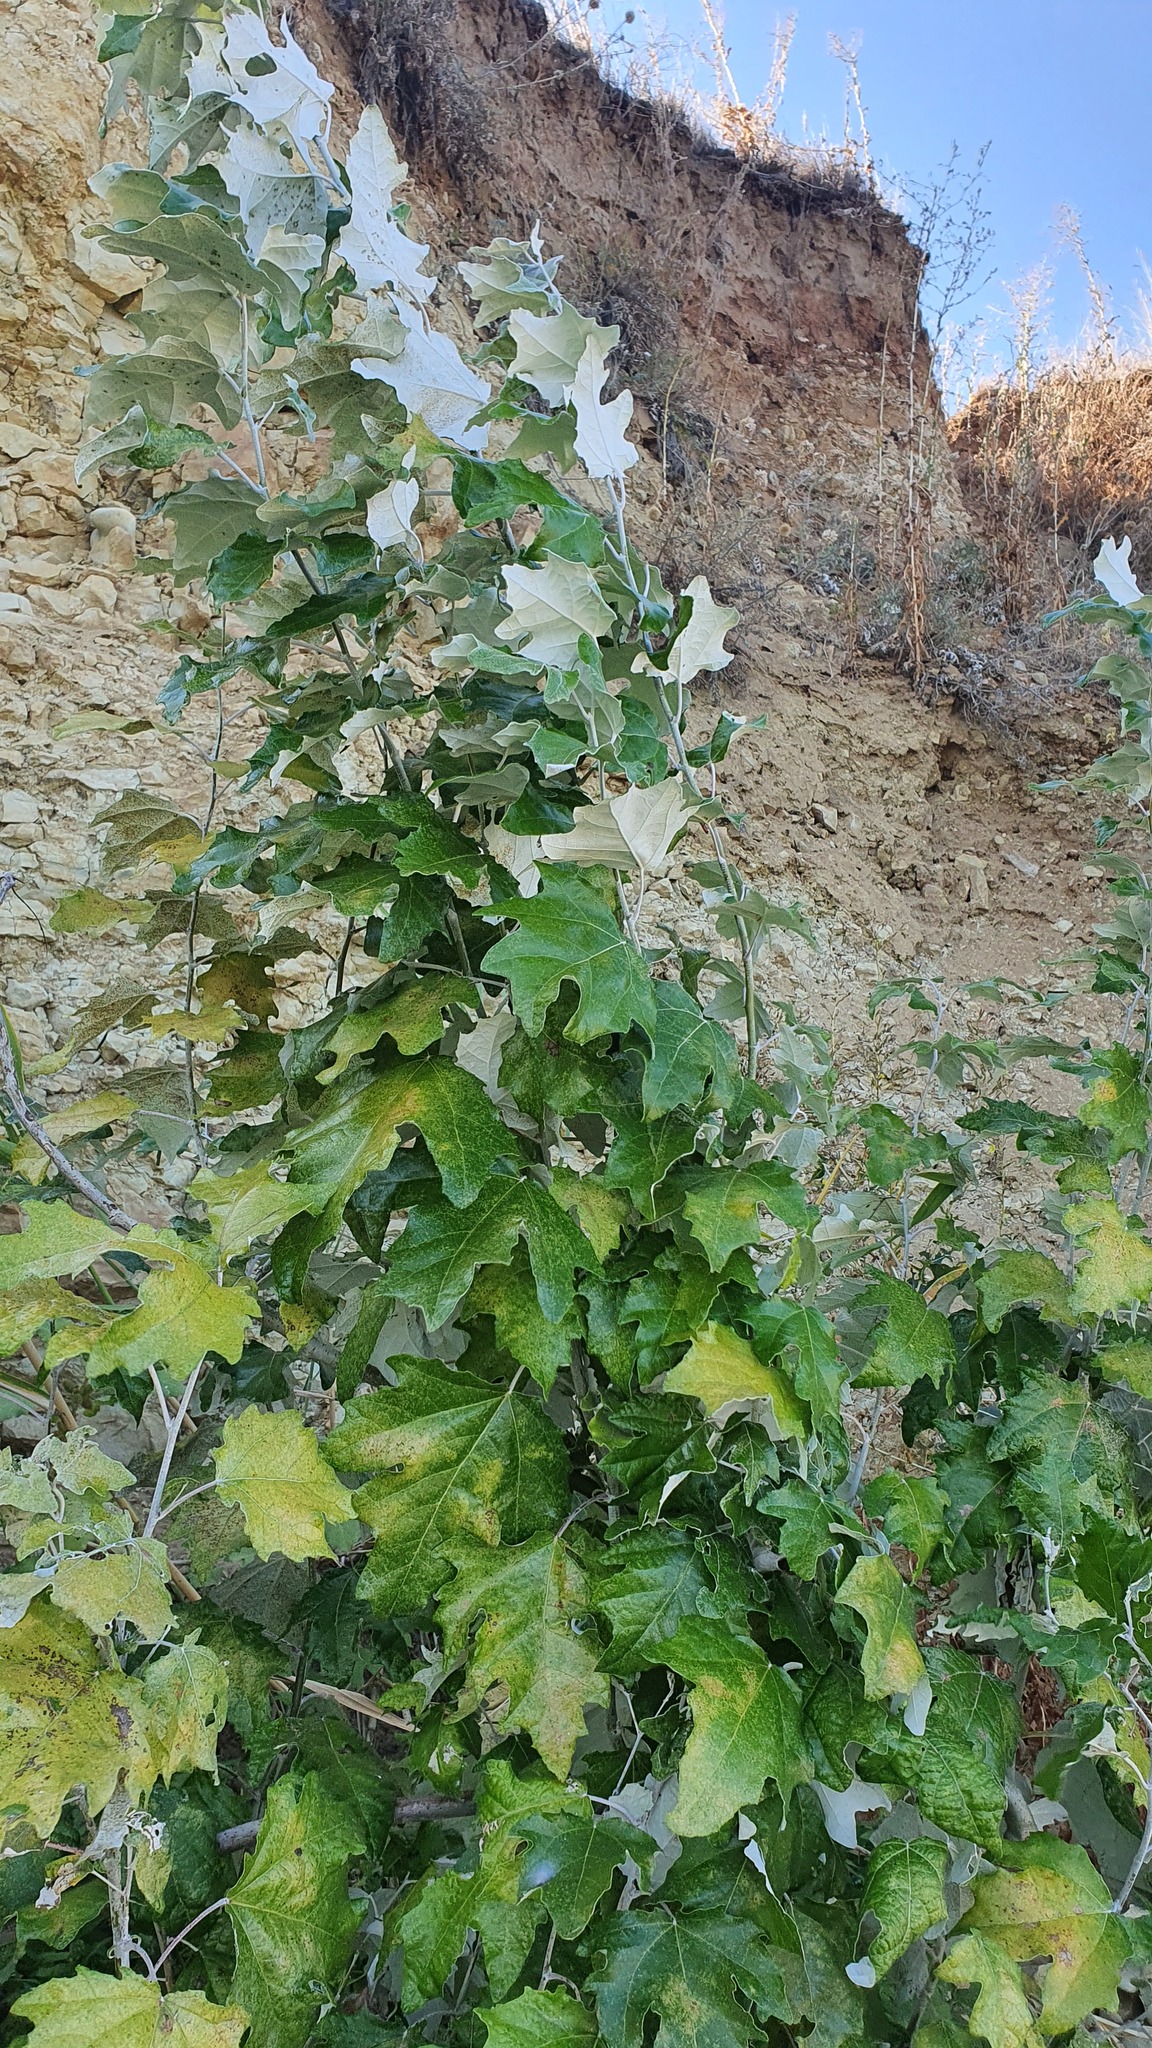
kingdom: Plantae
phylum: Tracheophyta
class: Magnoliopsida
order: Malpighiales
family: Salicaceae
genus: Populus
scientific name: Populus alba
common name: White poplar
